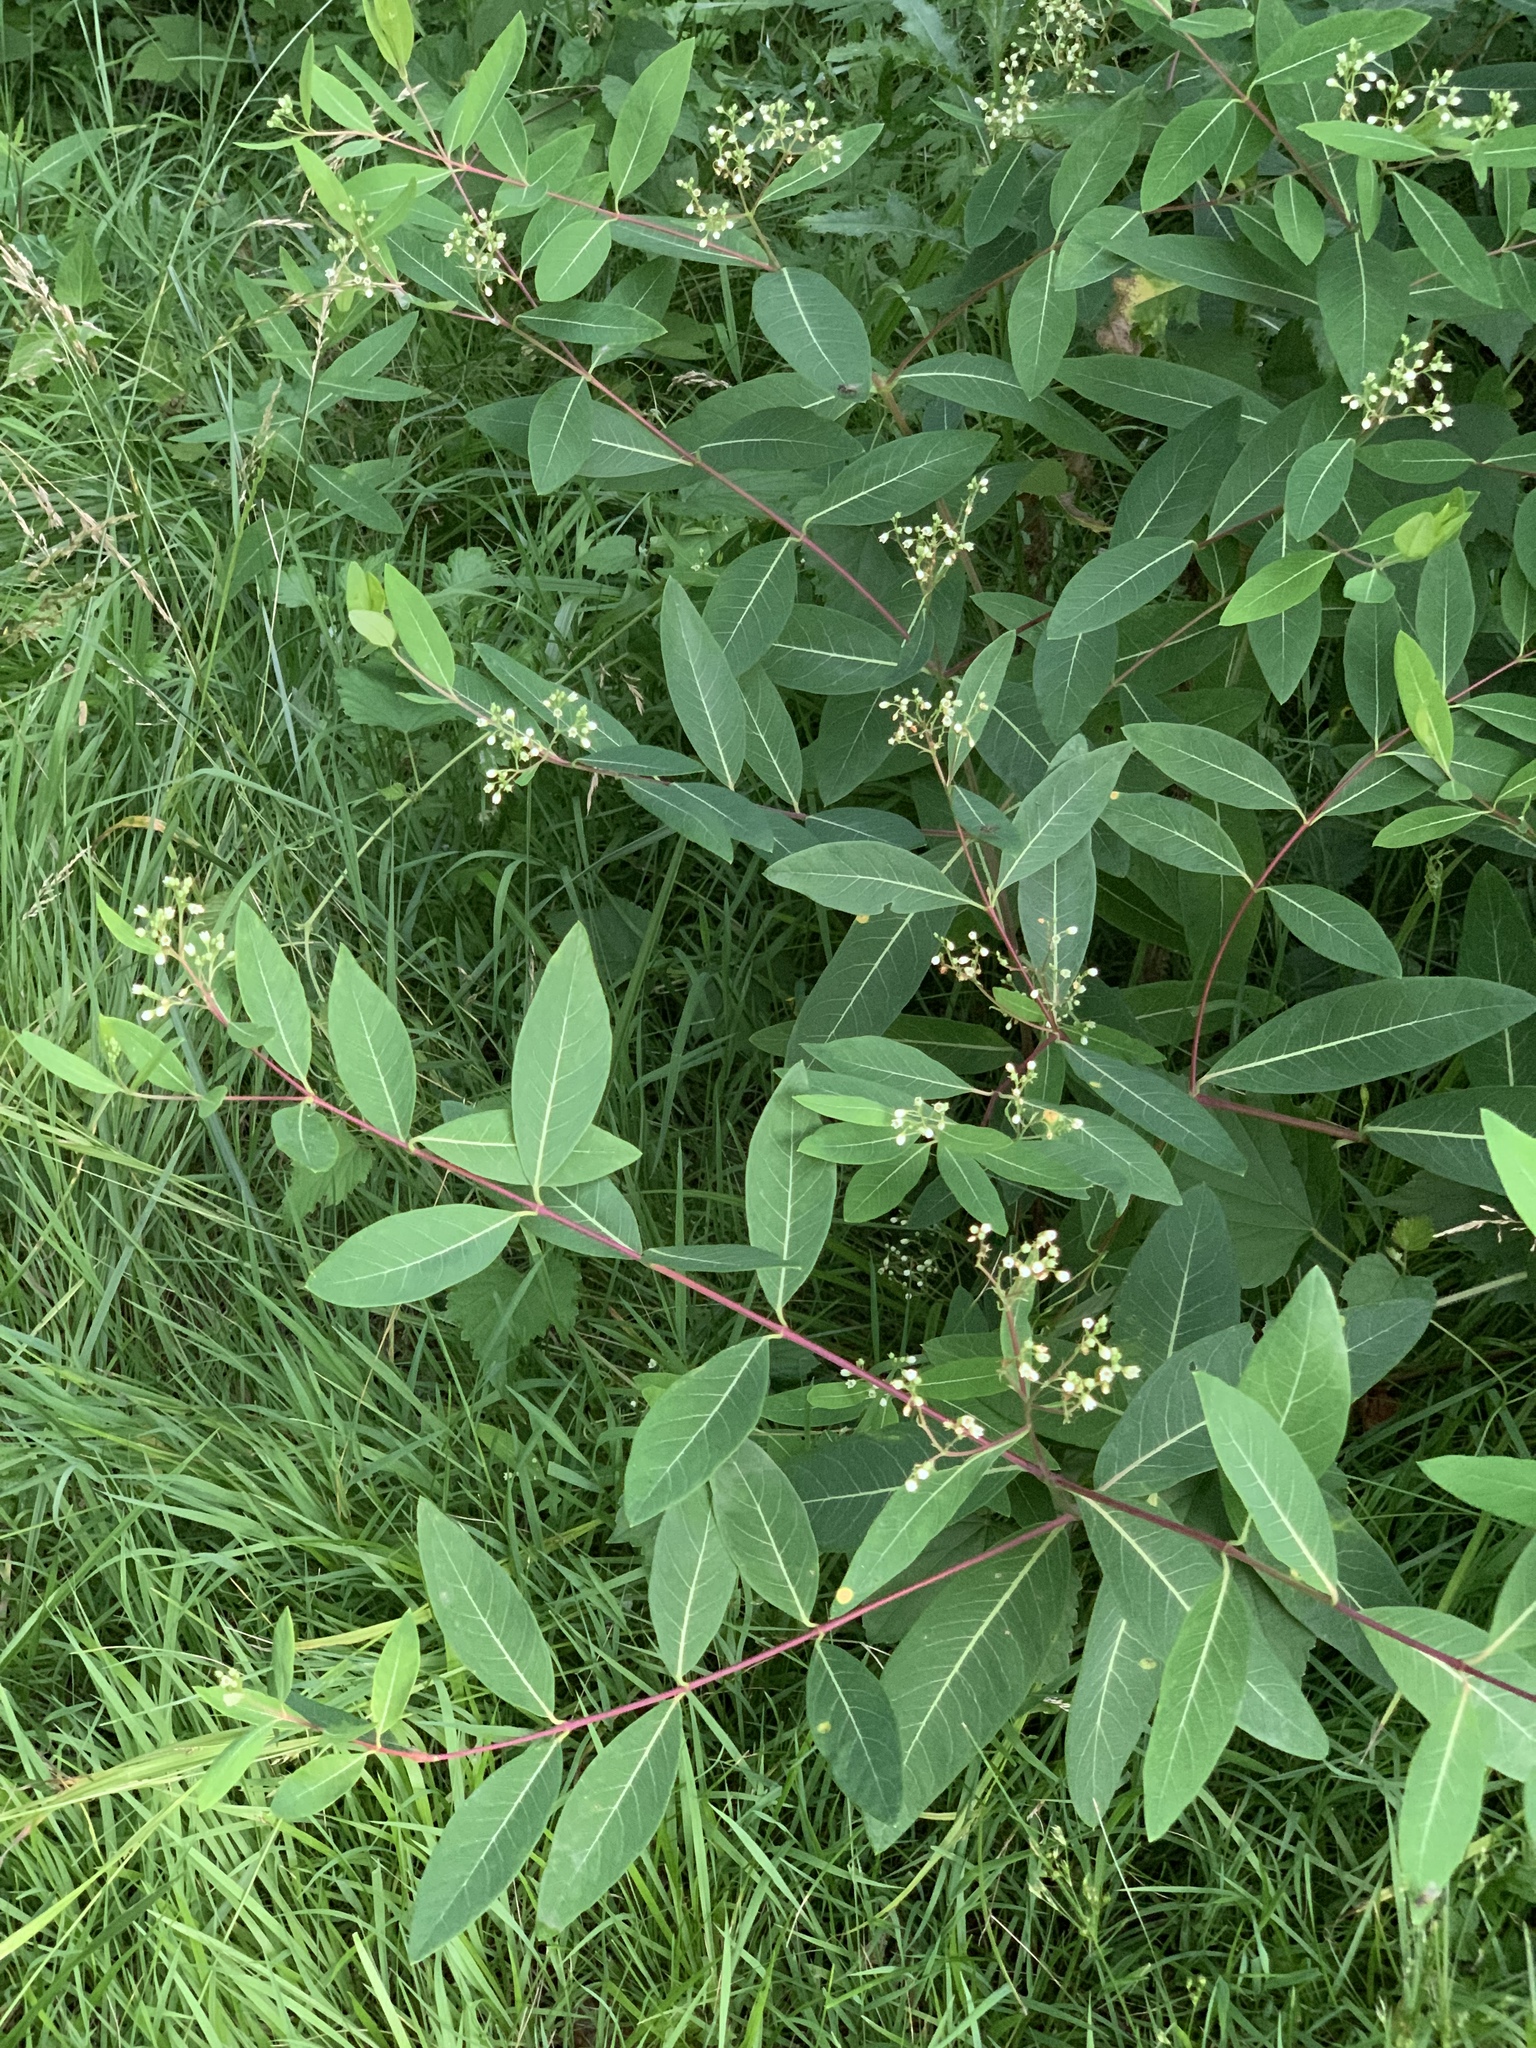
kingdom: Plantae
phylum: Tracheophyta
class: Magnoliopsida
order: Gentianales
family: Apocynaceae
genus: Apocynum
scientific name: Apocynum cannabinum
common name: Hemp dogbane
